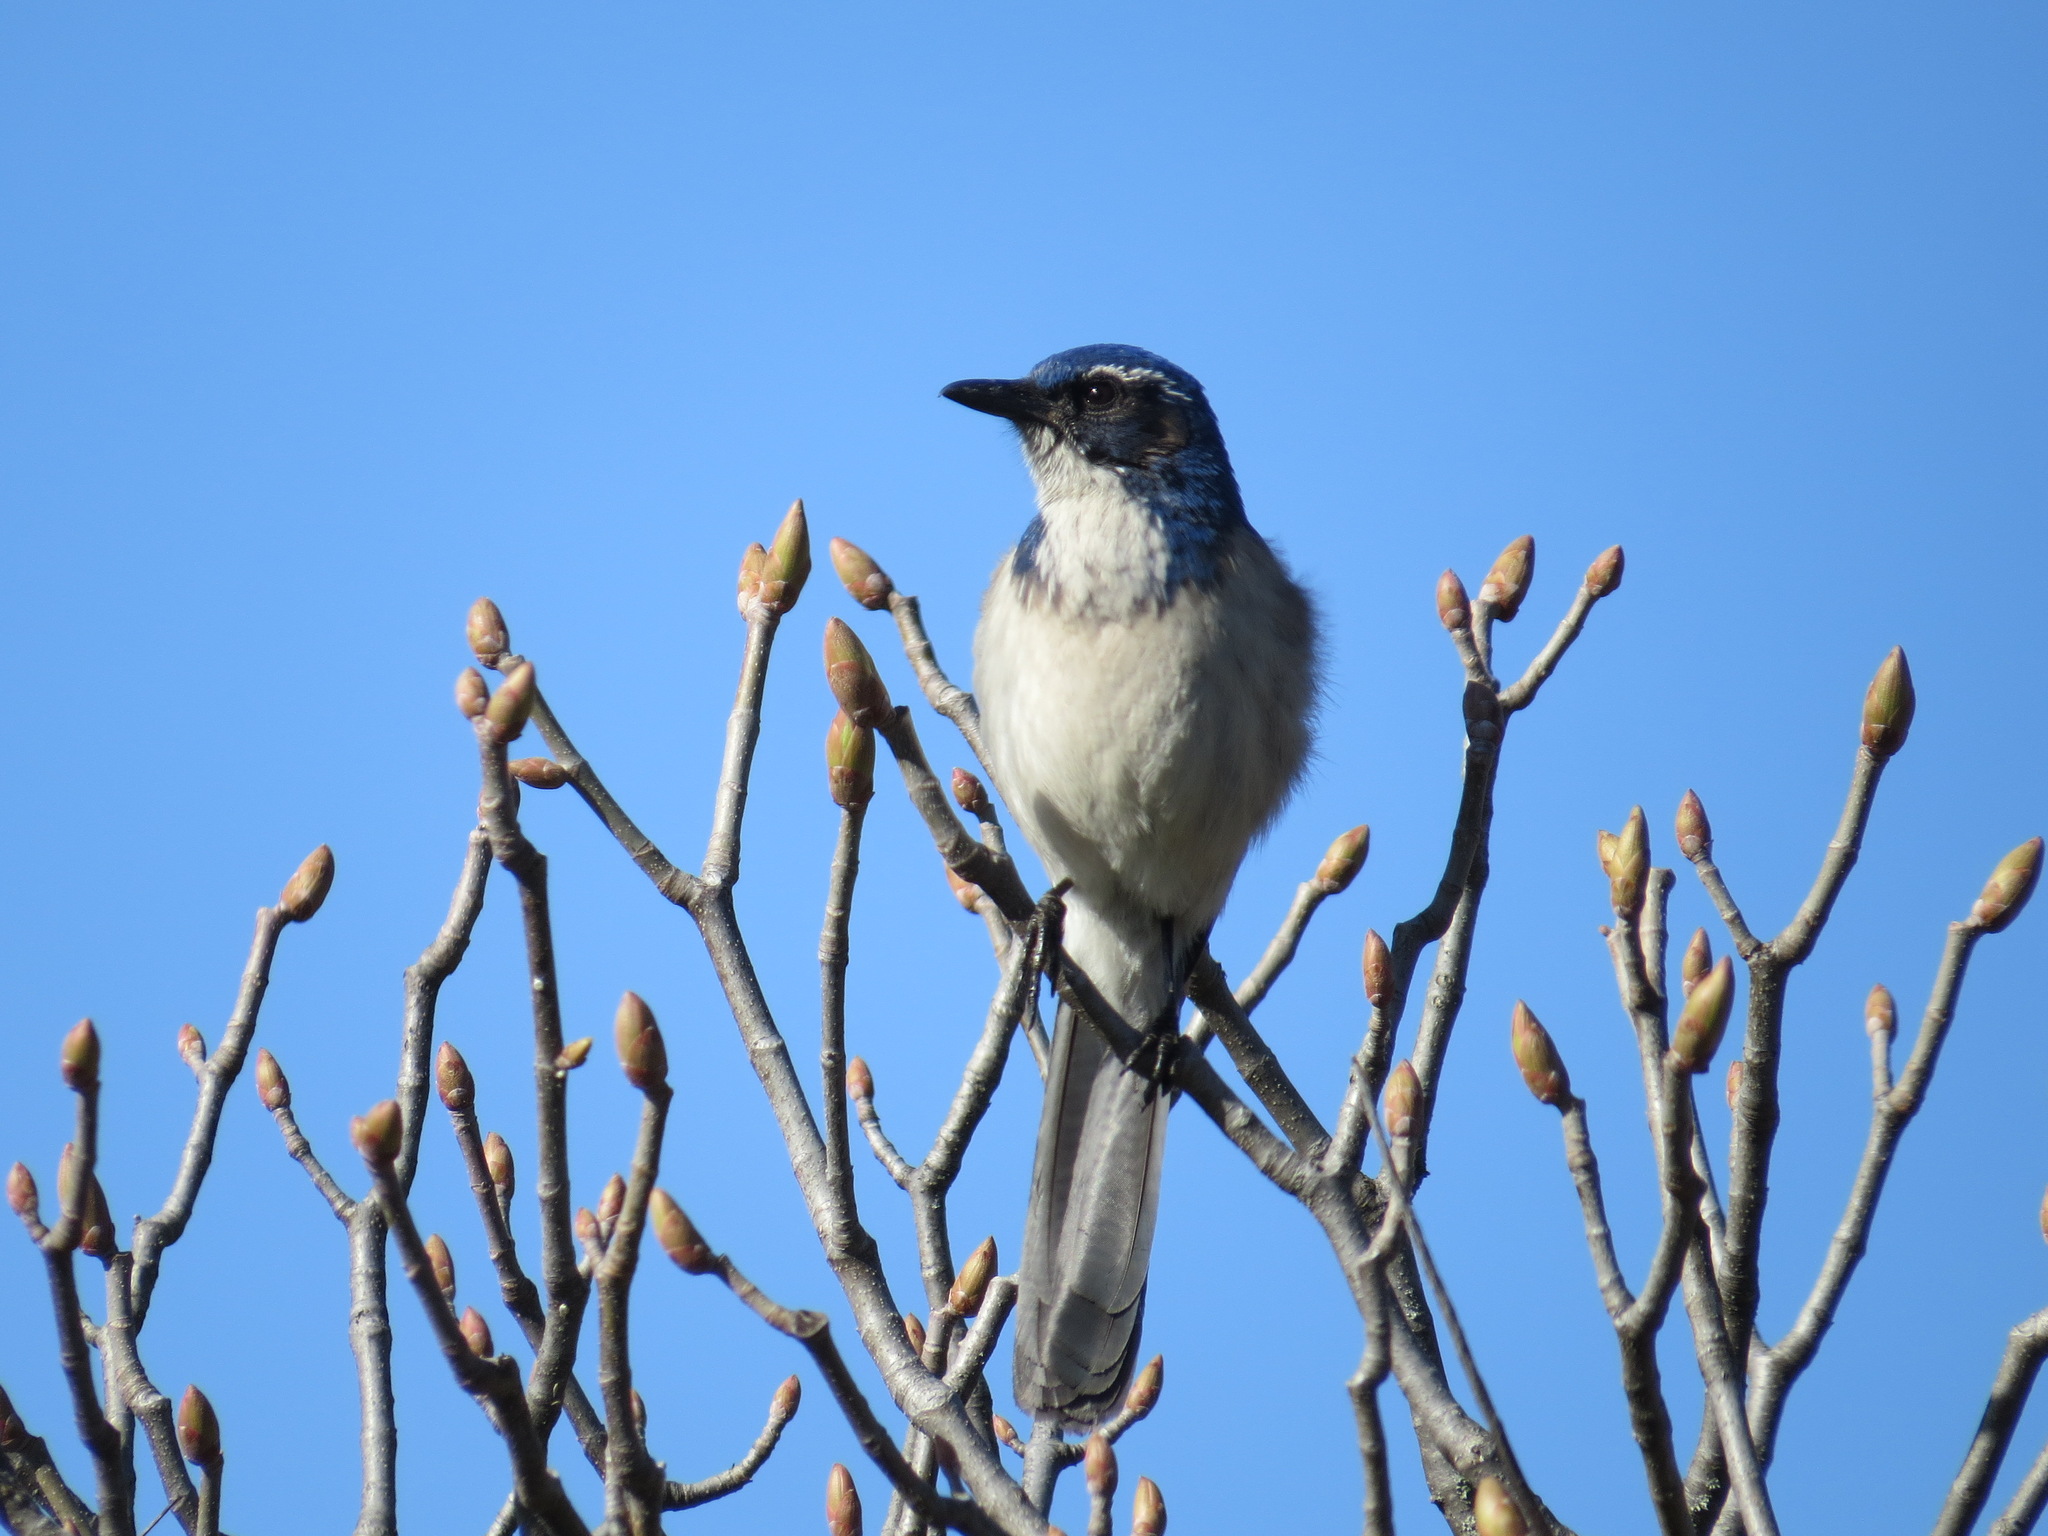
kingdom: Animalia
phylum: Chordata
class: Aves
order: Passeriformes
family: Corvidae
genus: Aphelocoma
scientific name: Aphelocoma californica
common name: California scrub-jay
